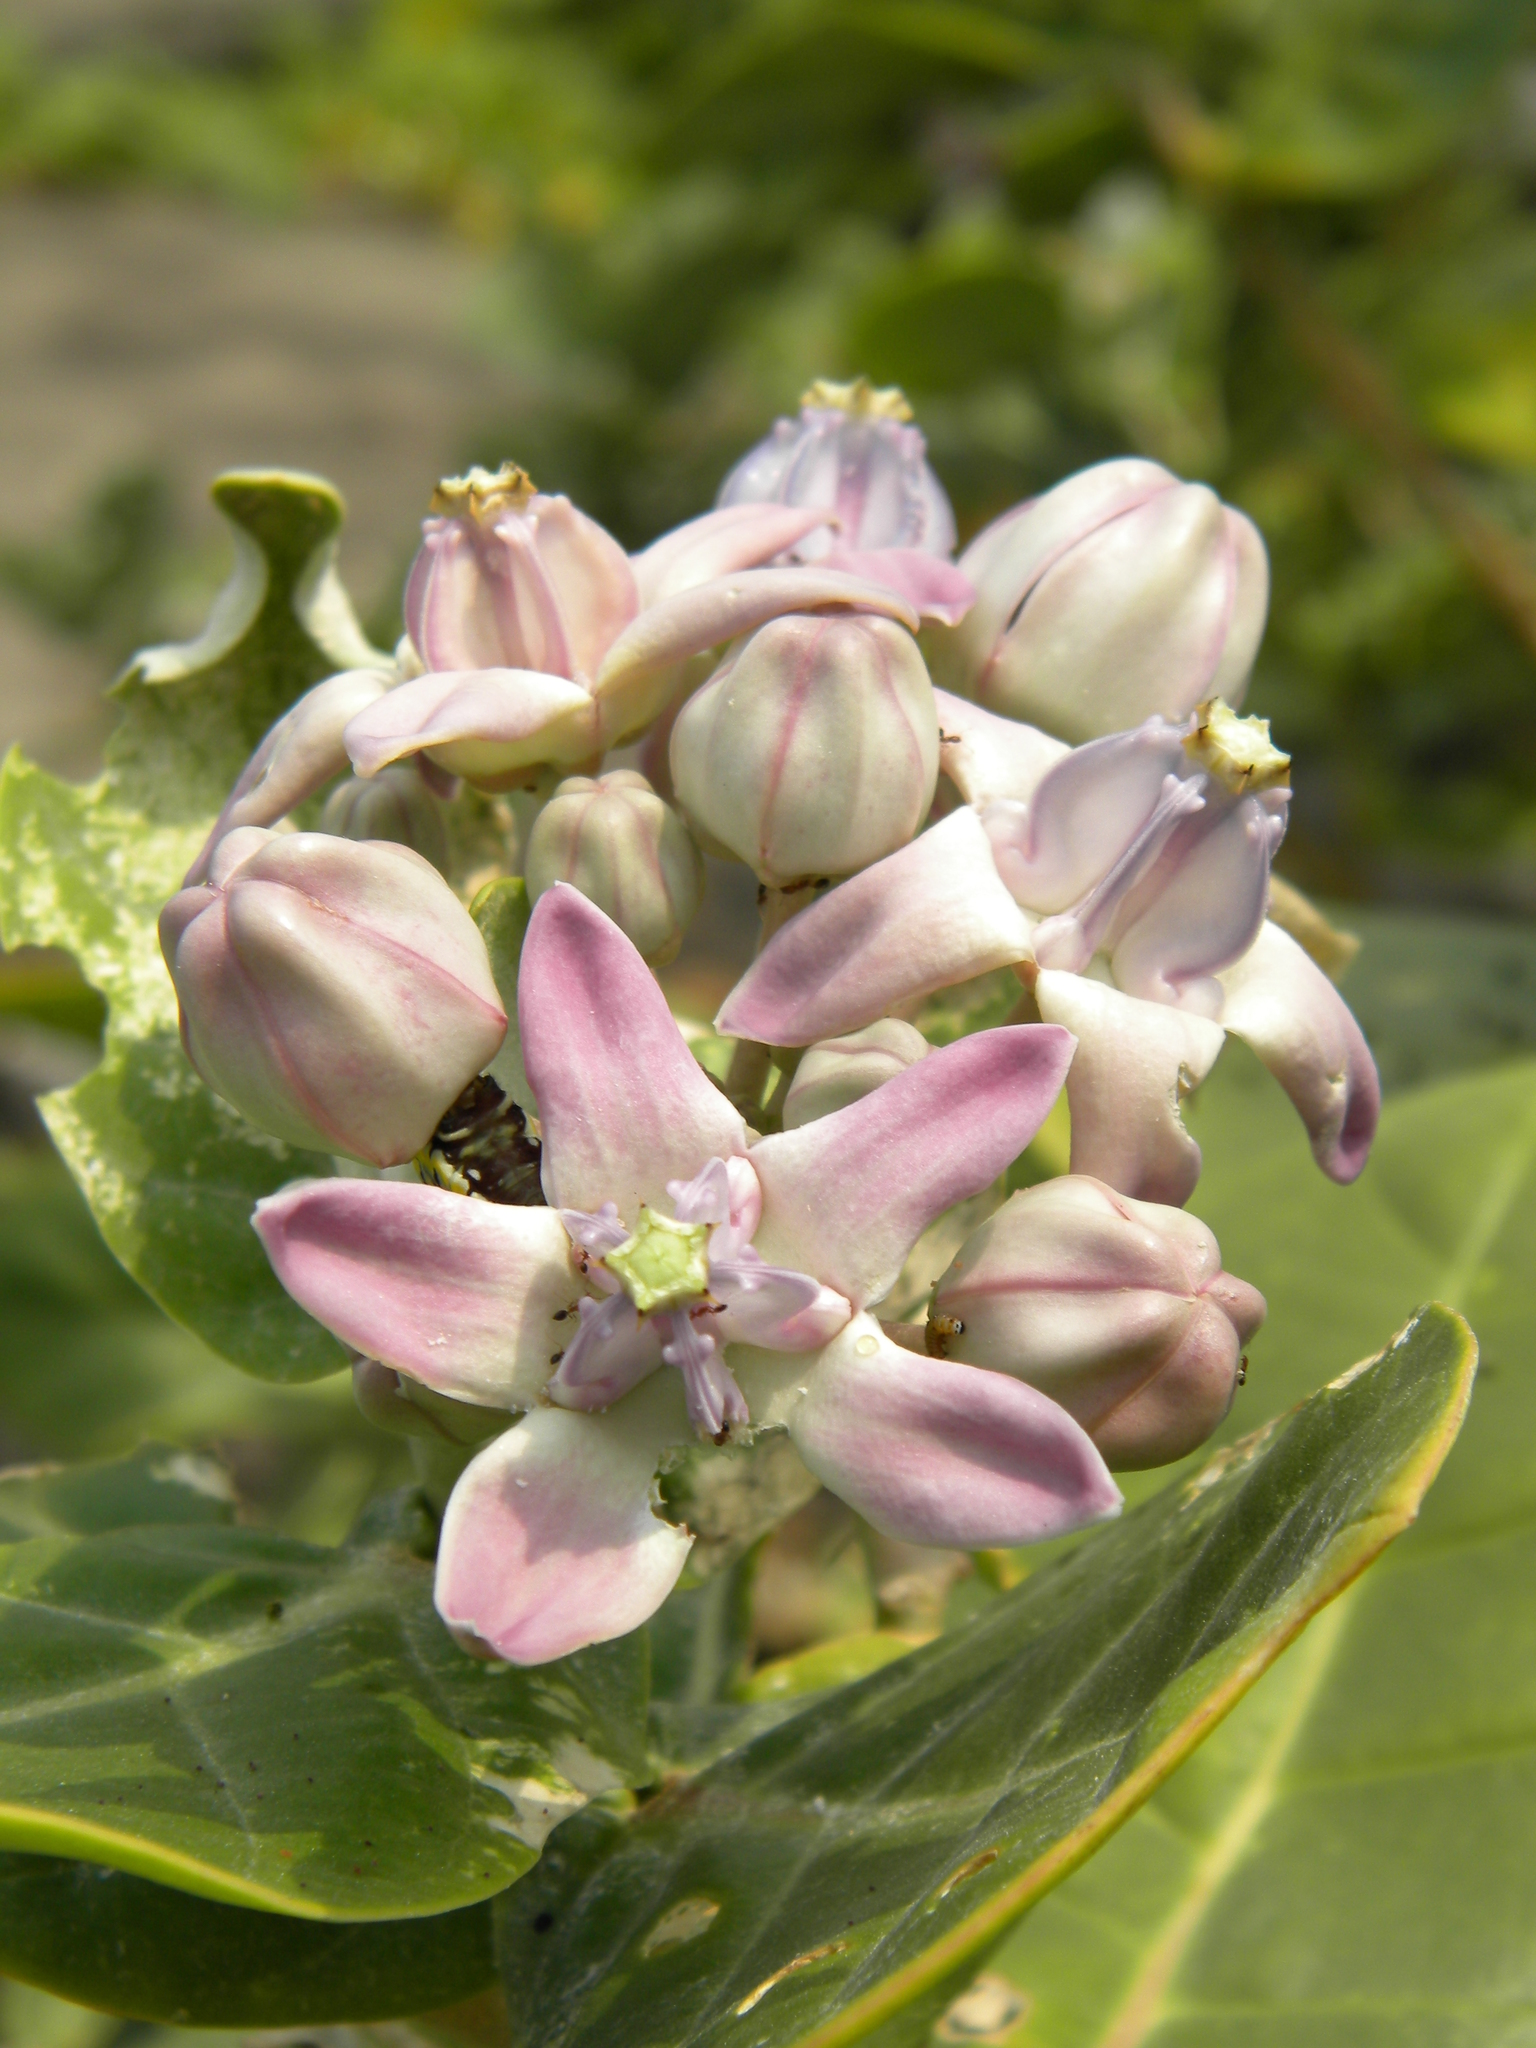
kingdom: Plantae
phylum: Tracheophyta
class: Magnoliopsida
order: Gentianales
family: Apocynaceae
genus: Calotropis
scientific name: Calotropis gigantea
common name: Crown flower
